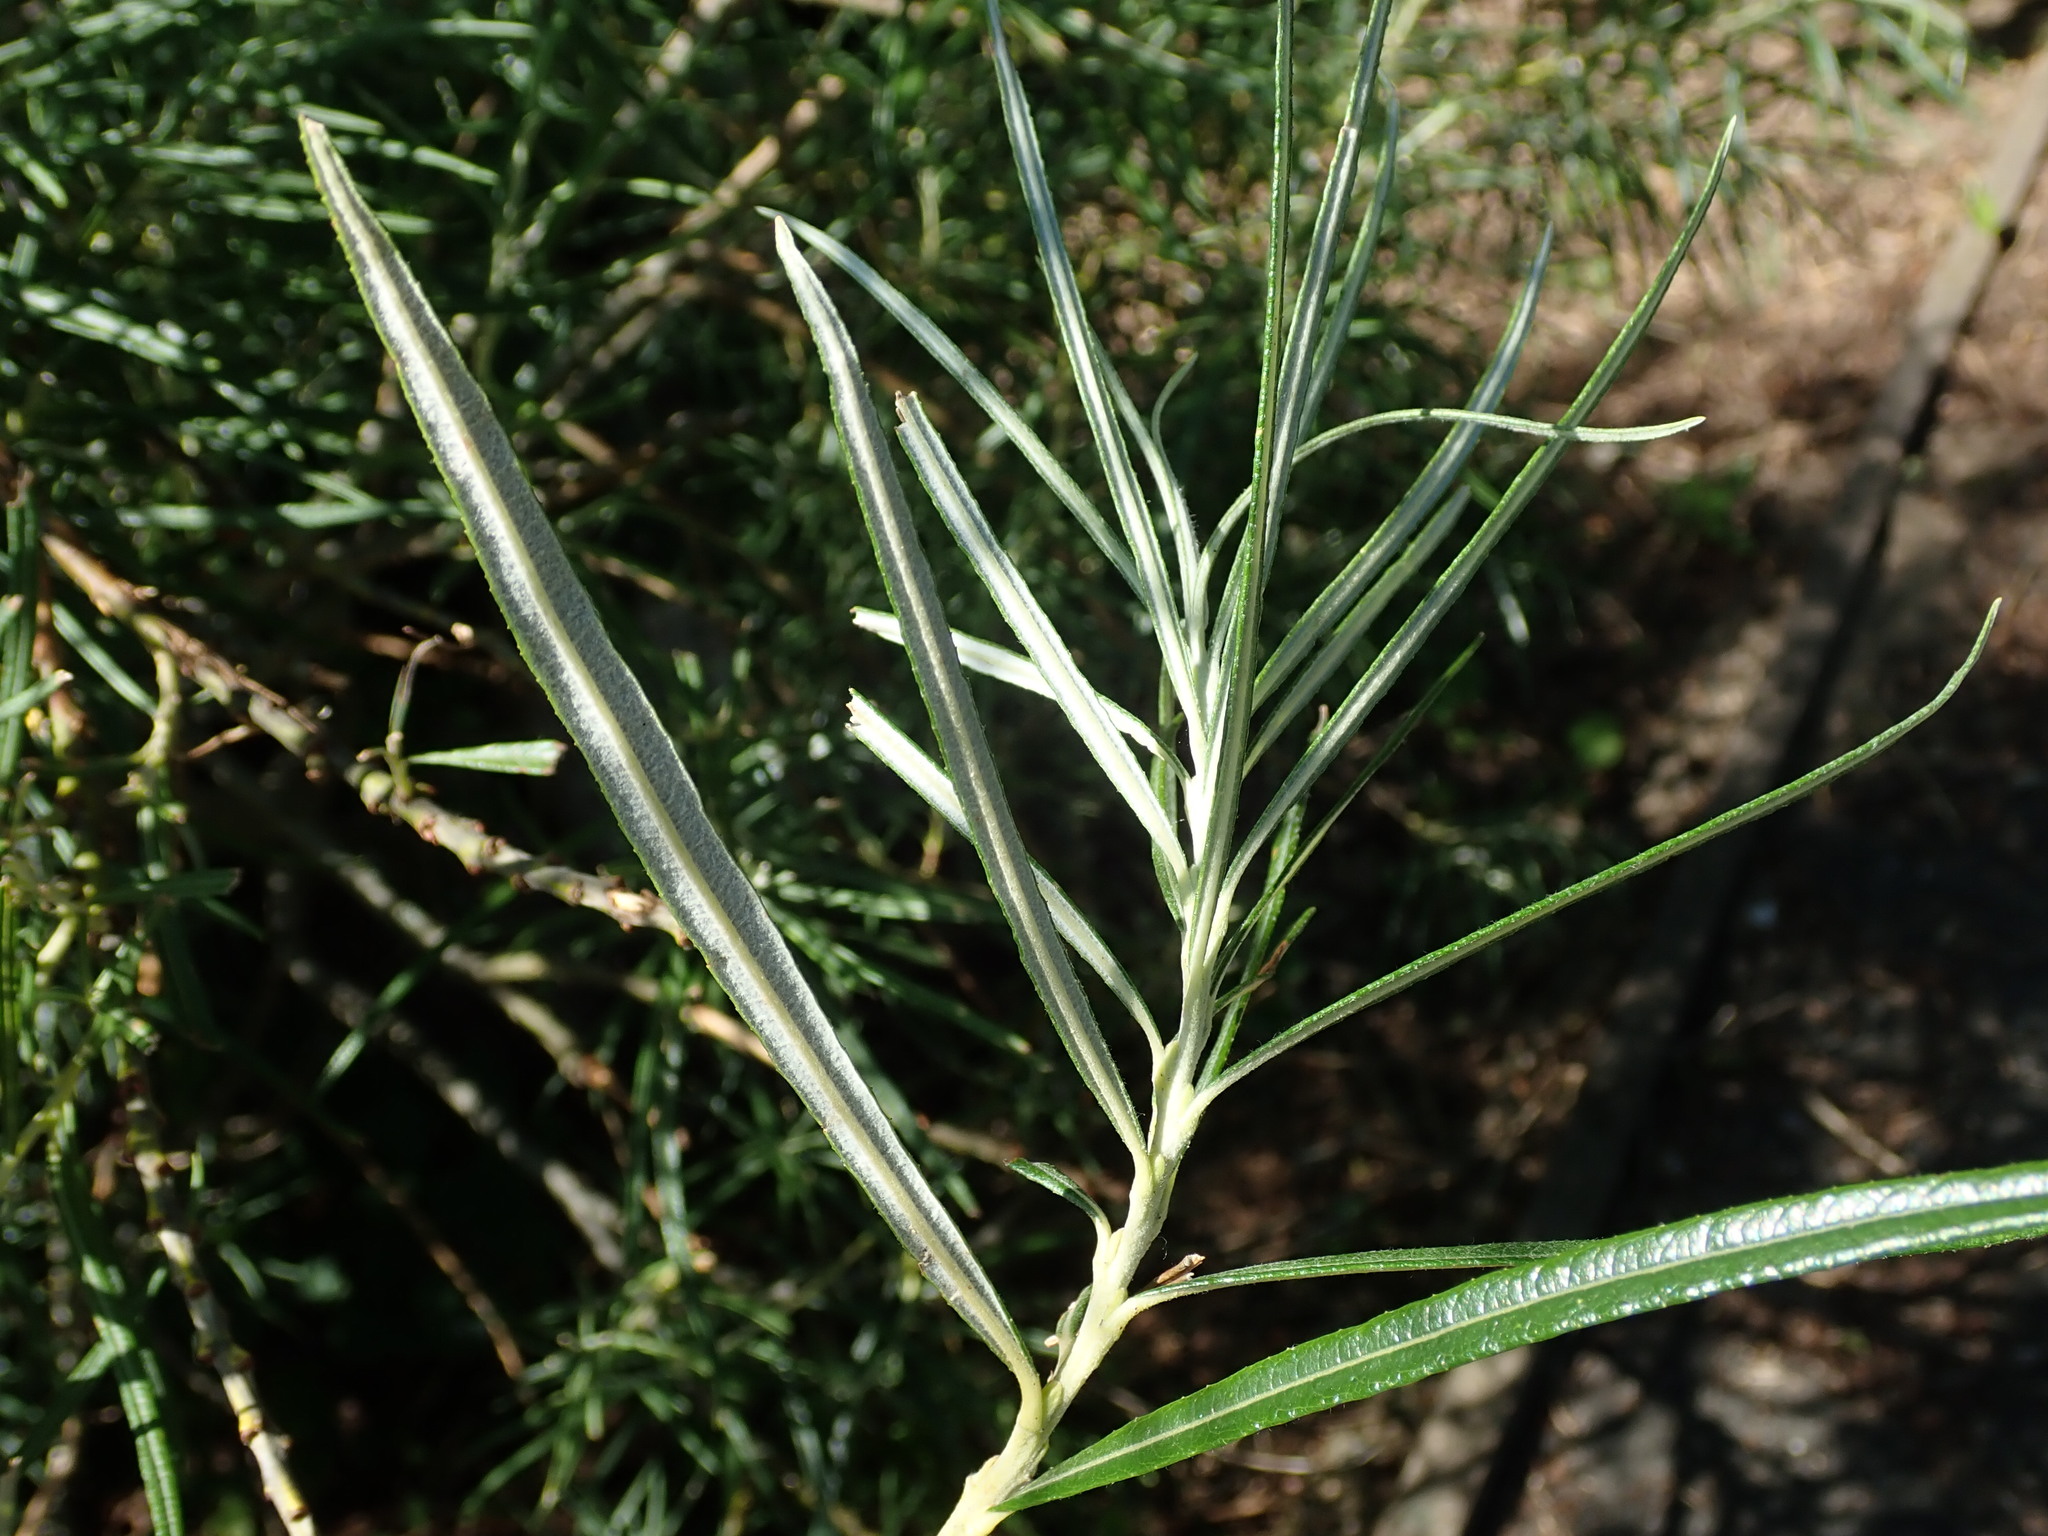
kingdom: Plantae
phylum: Tracheophyta
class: Magnoliopsida
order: Malpighiales
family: Salicaceae
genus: Salix
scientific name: Salix eleagnos
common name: Elaeagnus willow
